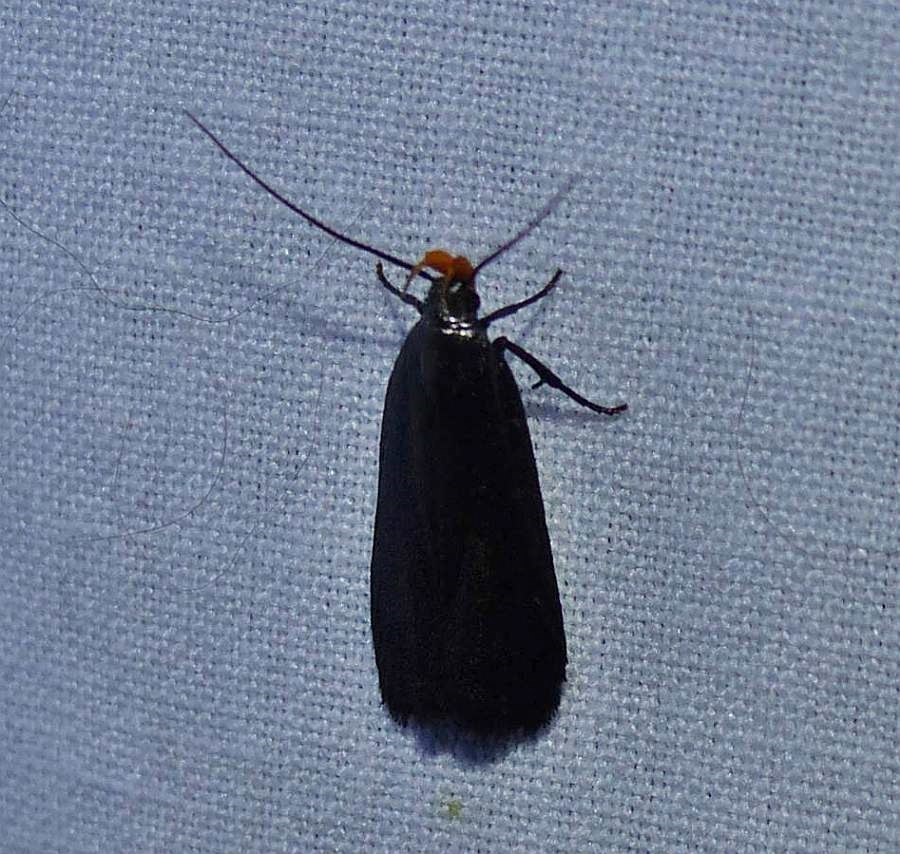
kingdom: Animalia
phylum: Arthropoda
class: Insecta
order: Lepidoptera
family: Gelechiidae
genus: Dichomeris
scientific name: Dichomeris purpureofusca
